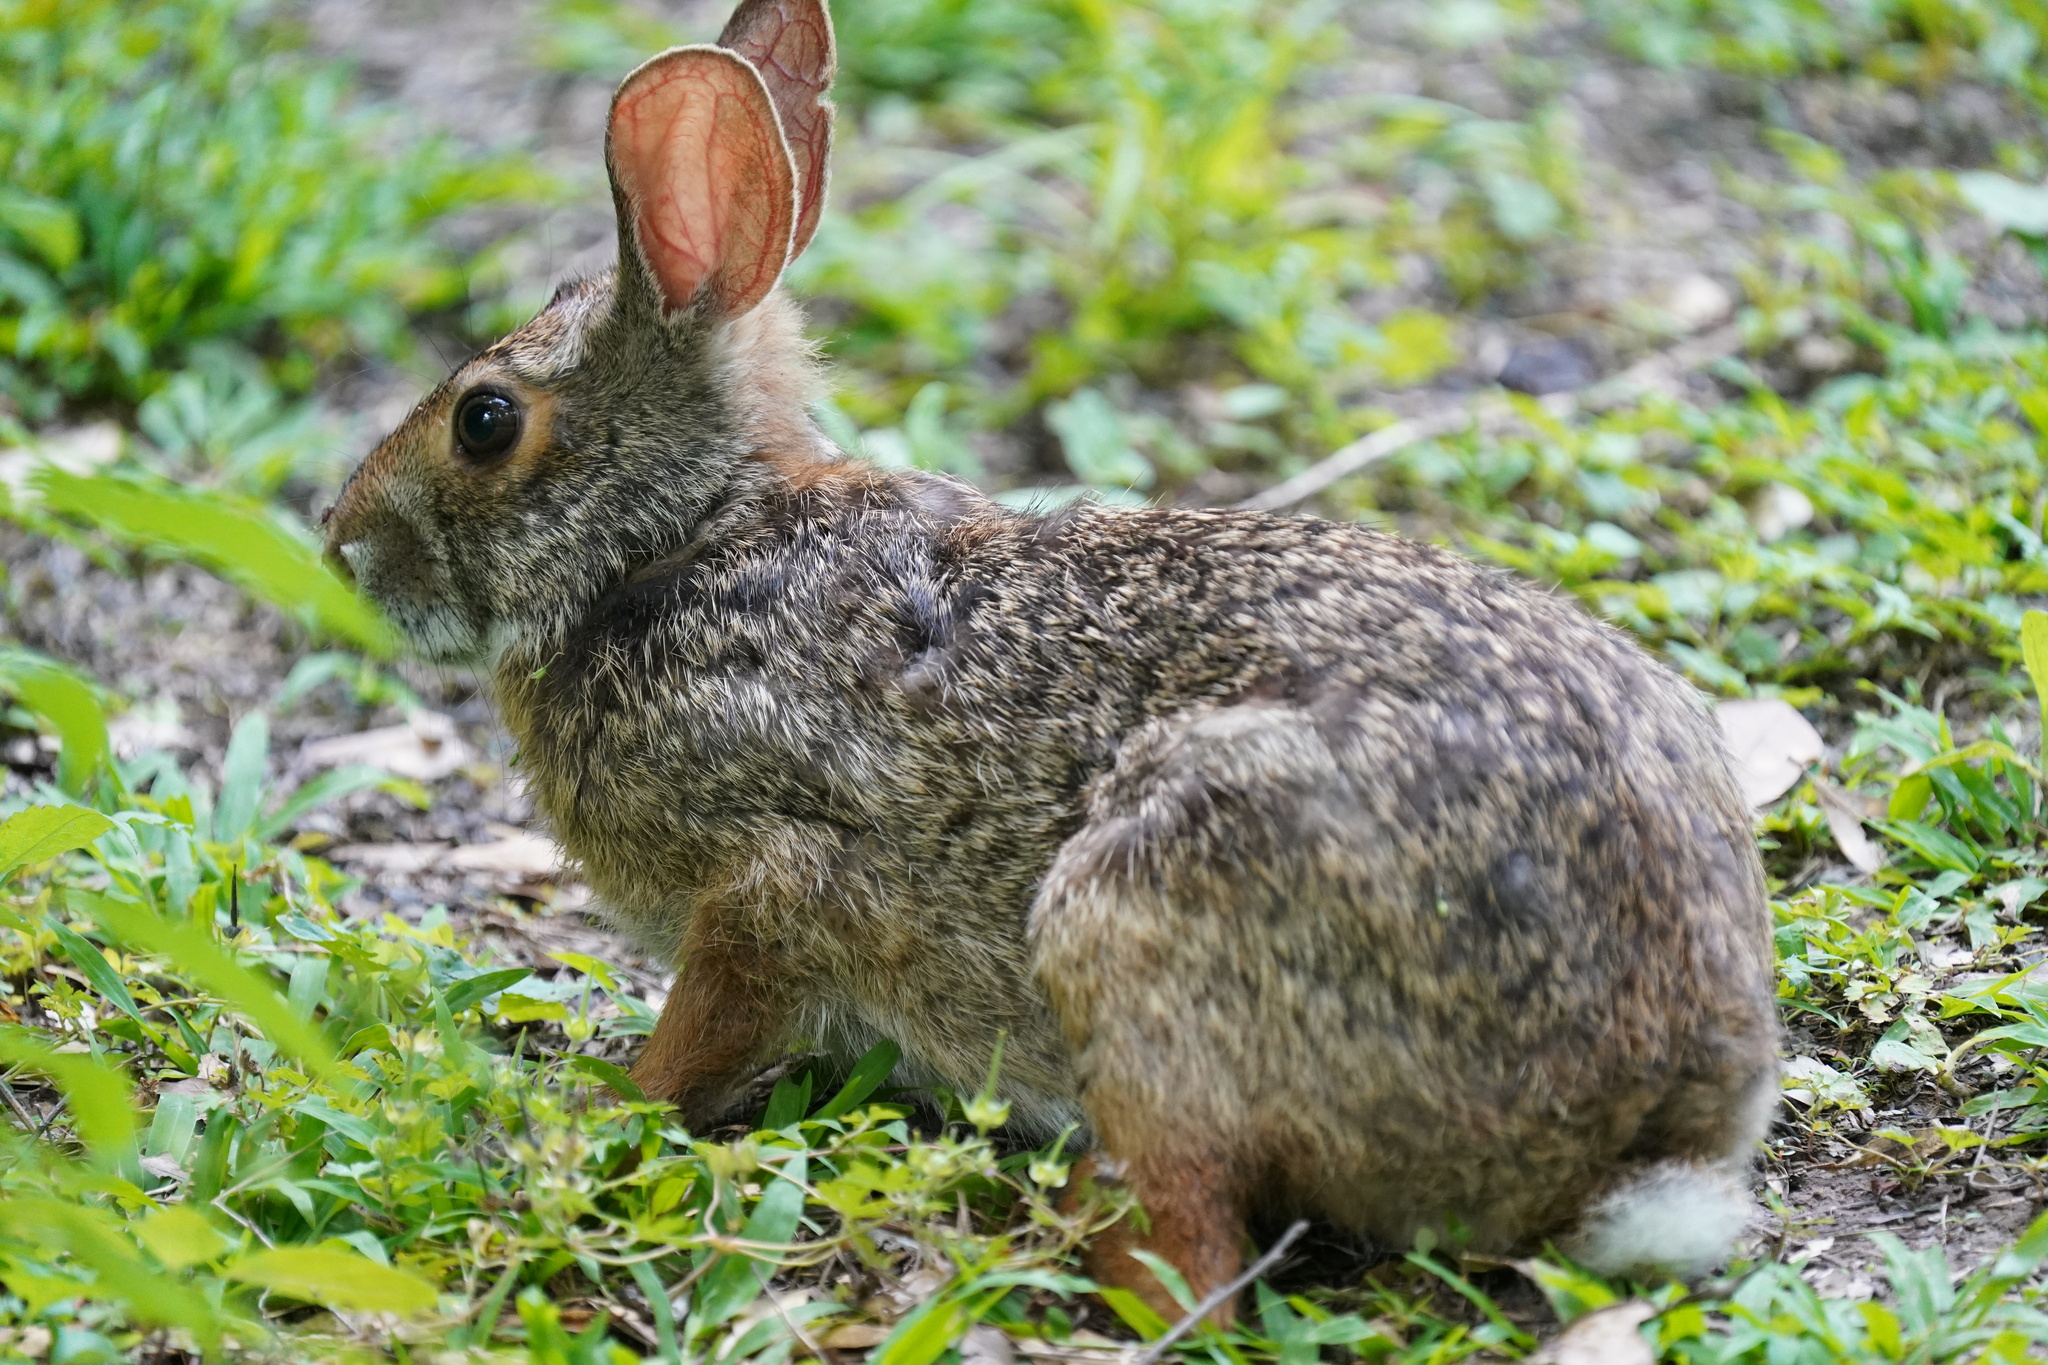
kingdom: Animalia
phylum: Chordata
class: Mammalia
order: Lagomorpha
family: Leporidae
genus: Sylvilagus
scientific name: Sylvilagus aquaticus
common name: Swamp rabbit
